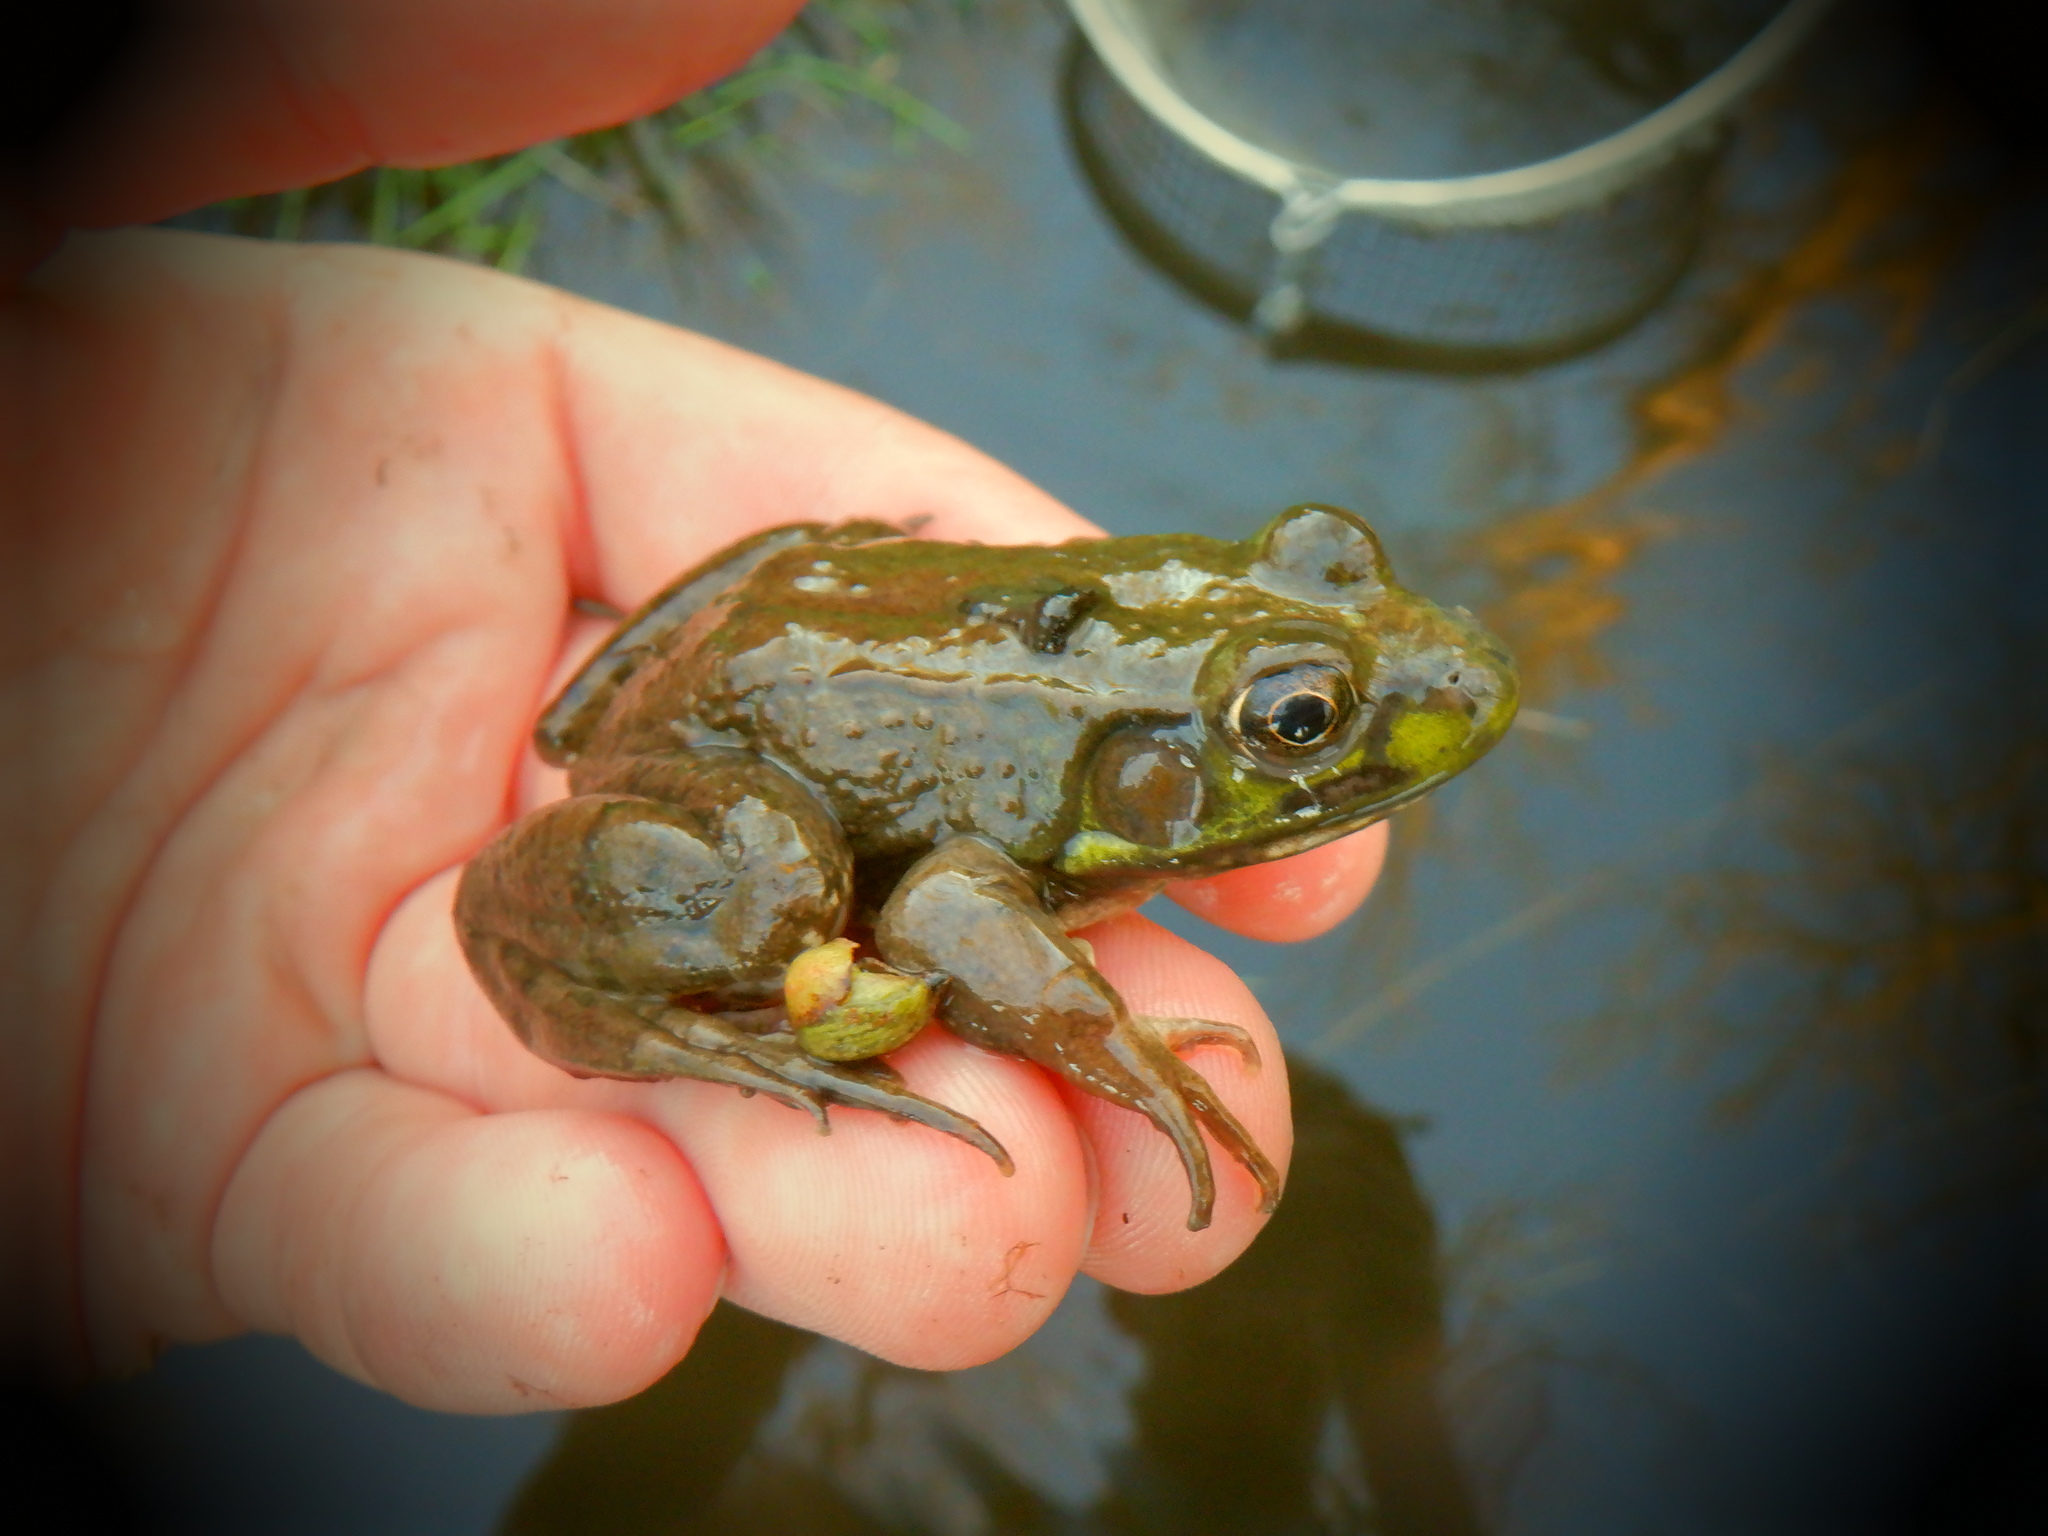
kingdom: Animalia
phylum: Chordata
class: Amphibia
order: Anura
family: Ranidae
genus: Lithobates
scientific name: Lithobates clamitans
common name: Green frog
